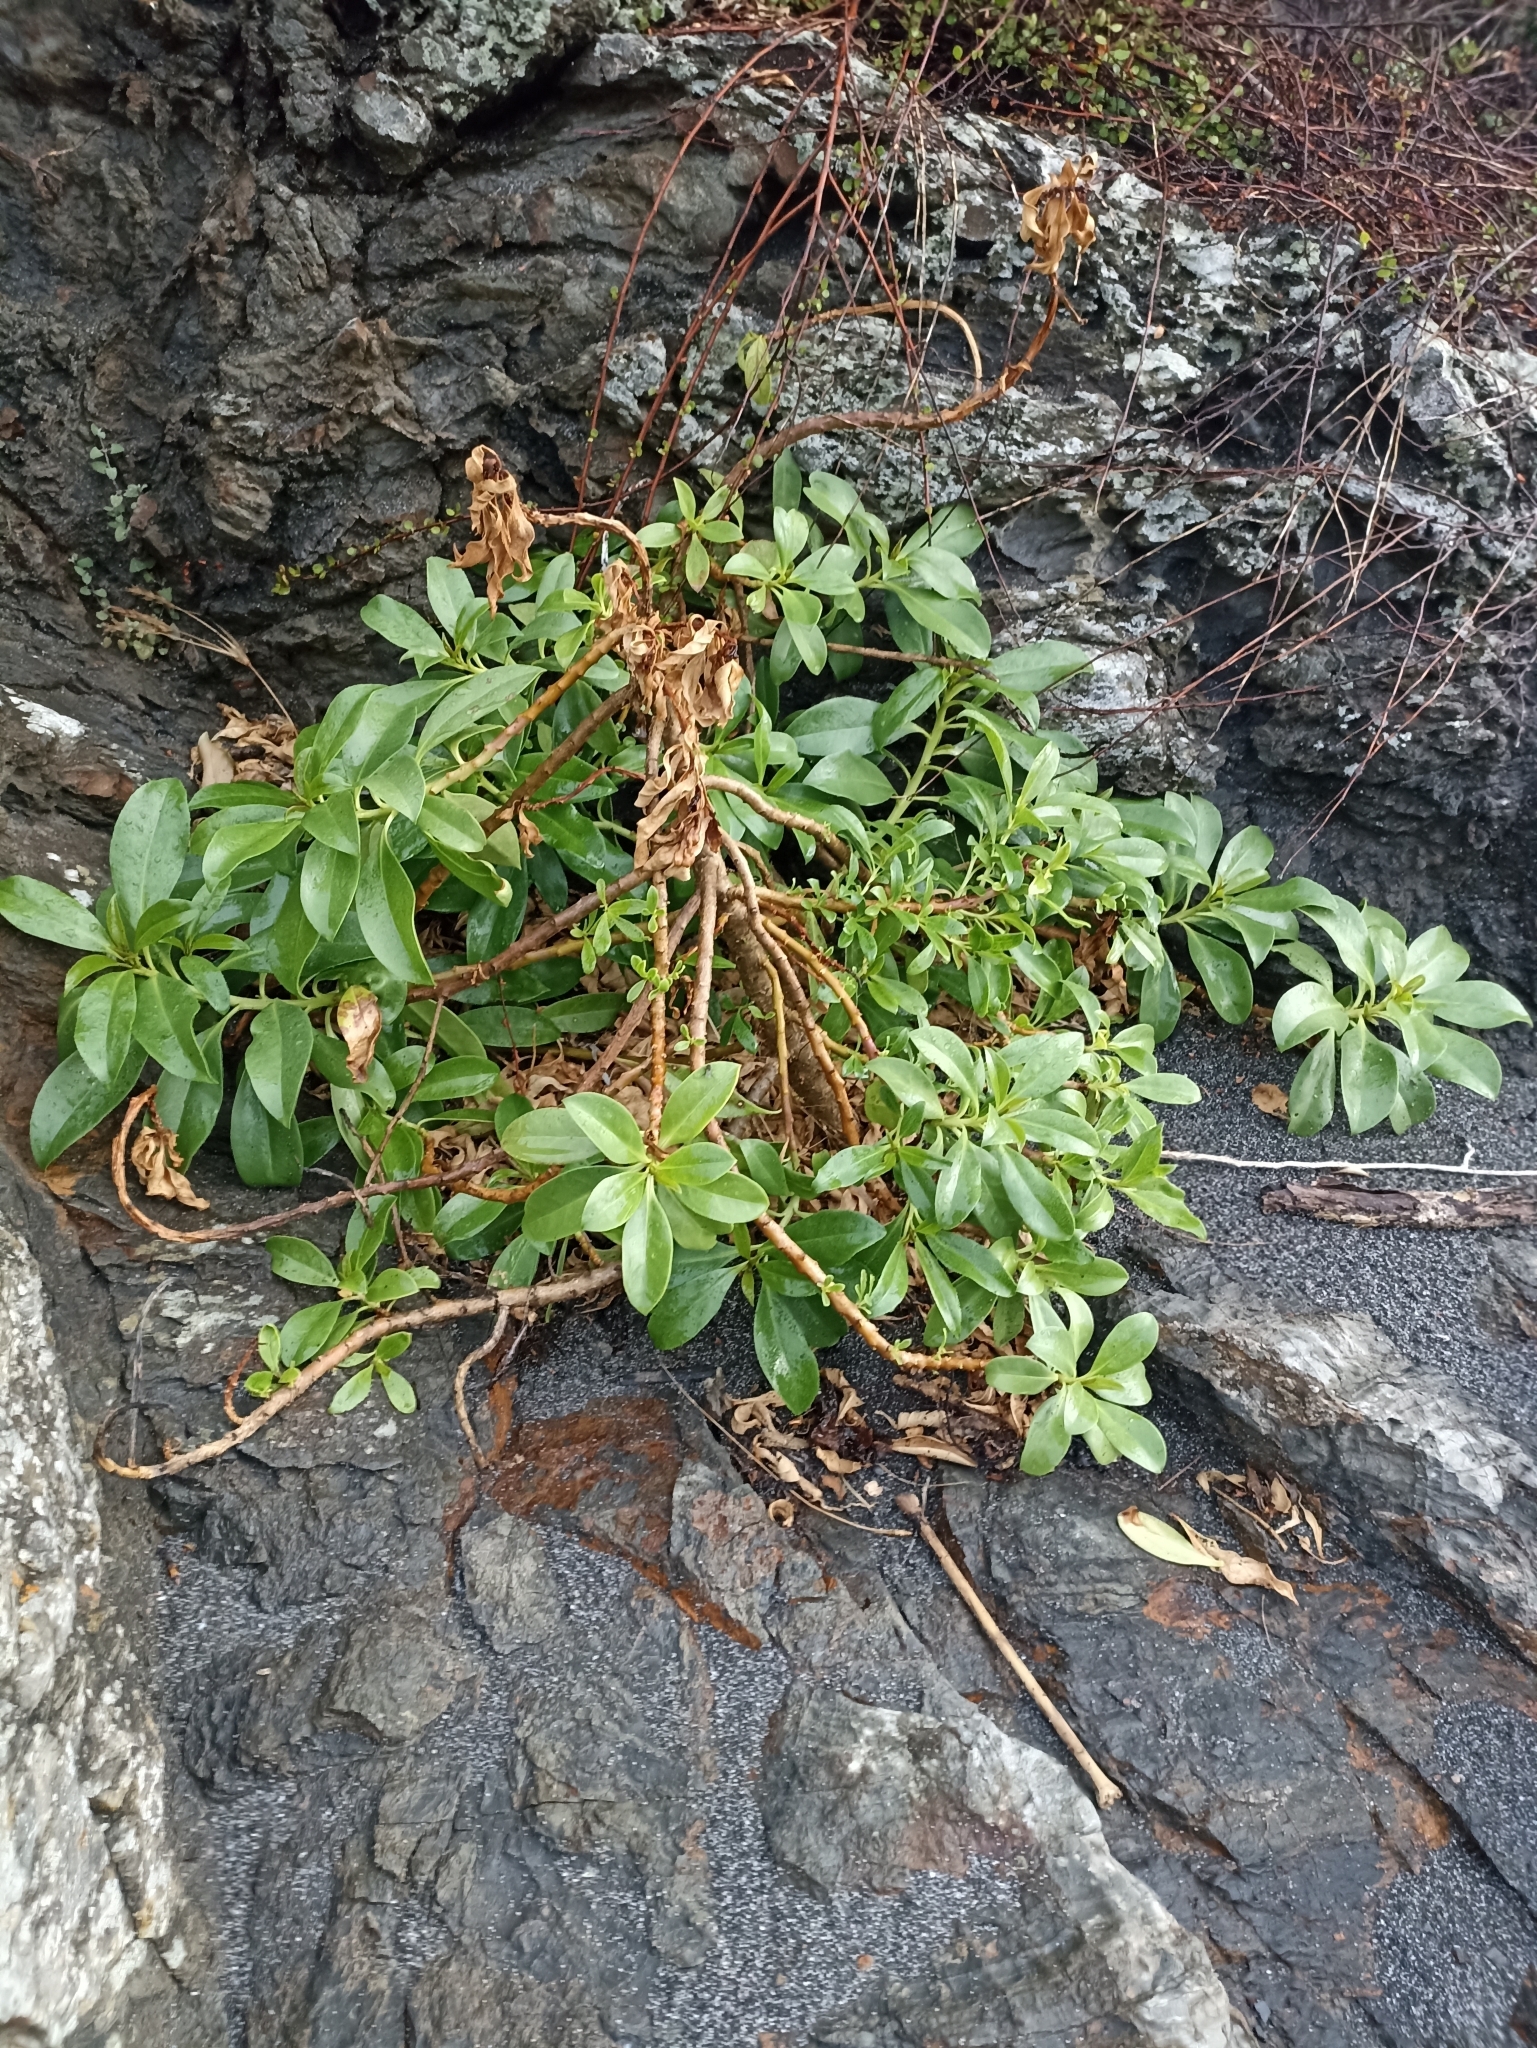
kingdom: Plantae
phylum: Tracheophyta
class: Magnoliopsida
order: Lamiales
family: Scrophulariaceae
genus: Myoporum
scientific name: Myoporum laetum
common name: Ngaio tree
